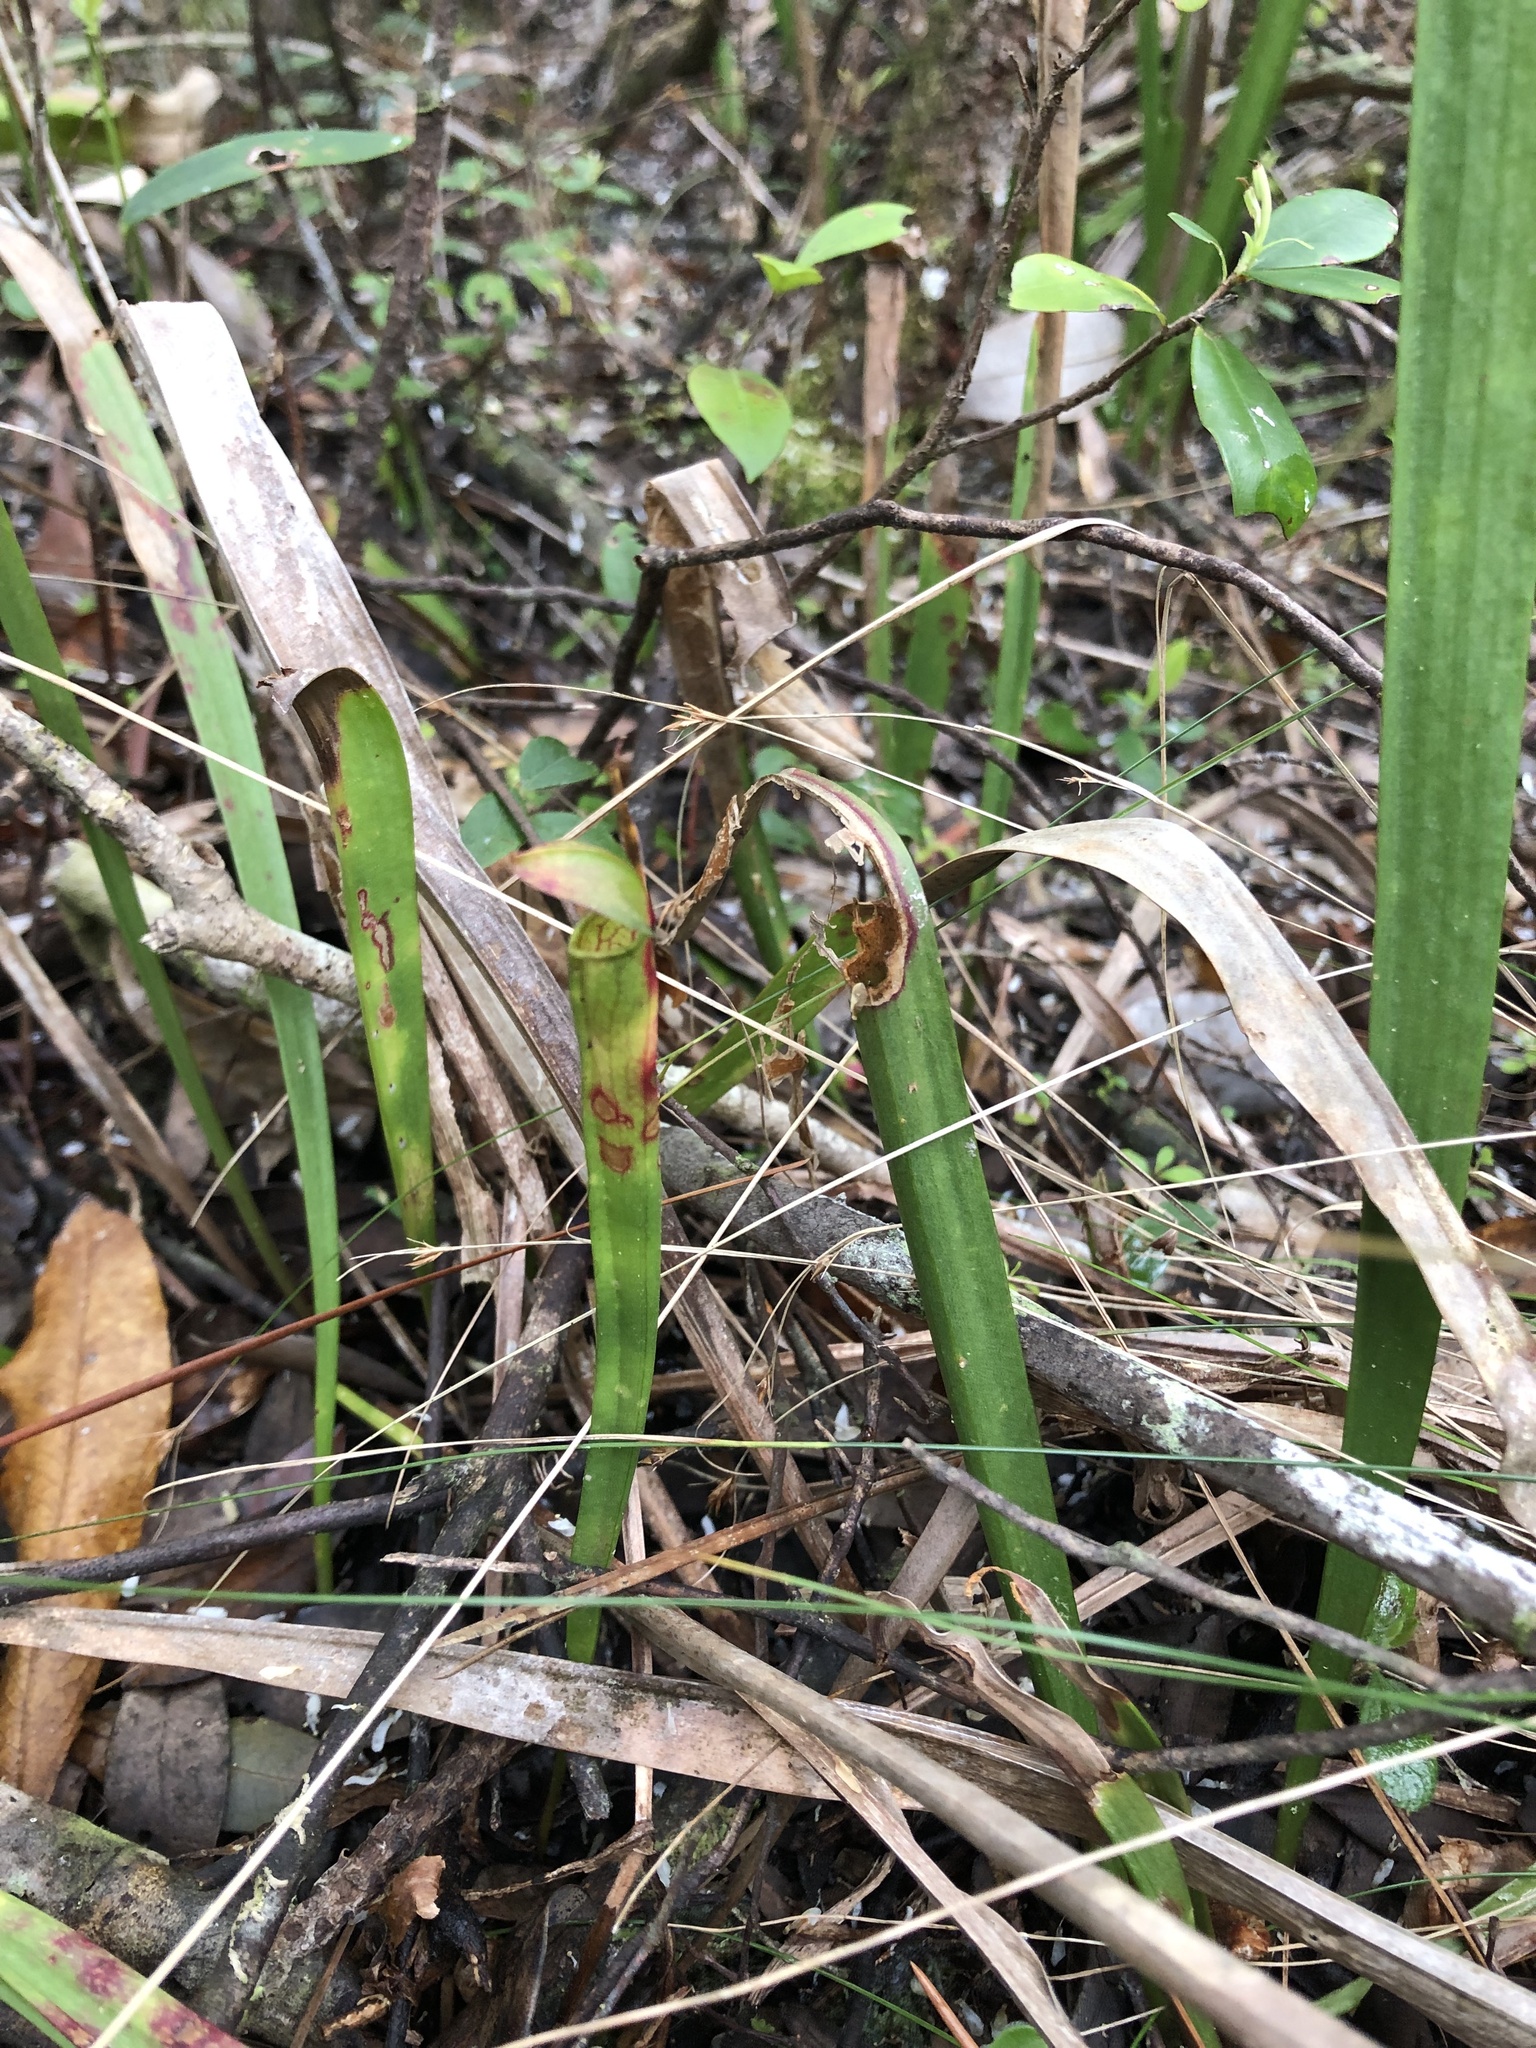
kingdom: Plantae
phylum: Tracheophyta
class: Magnoliopsida
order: Ericales
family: Sarraceniaceae
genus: Sarracenia
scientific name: Sarracenia alata
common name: Yellow trumpets
